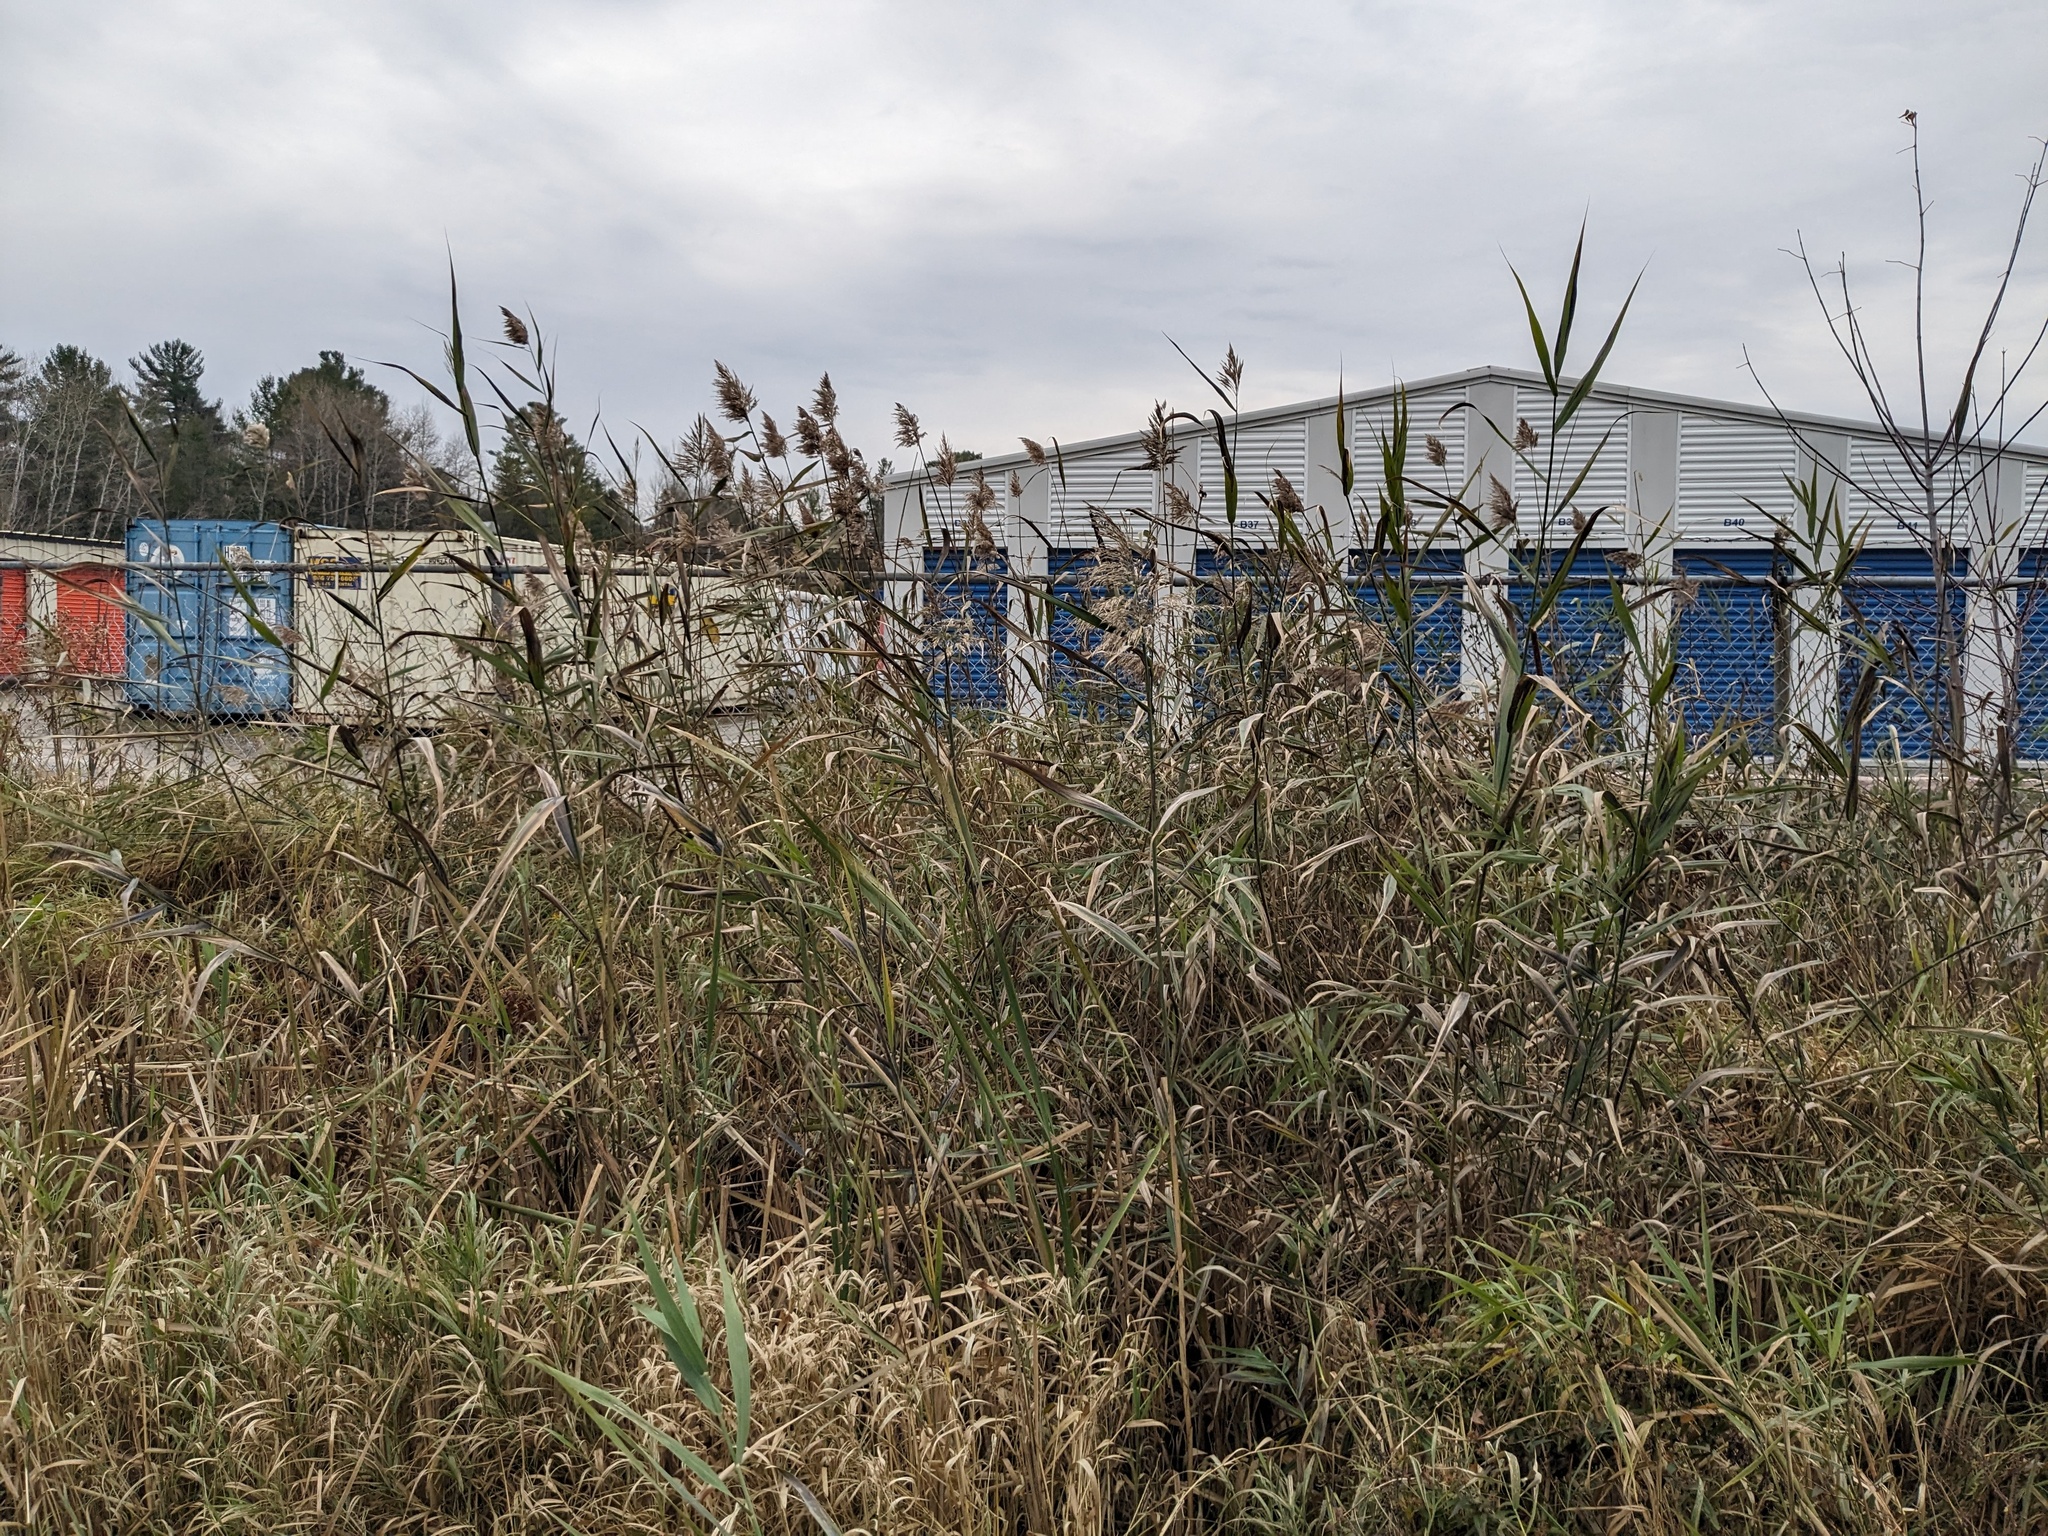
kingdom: Plantae
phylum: Tracheophyta
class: Liliopsida
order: Poales
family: Poaceae
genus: Phragmites
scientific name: Phragmites australis
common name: Common reed
